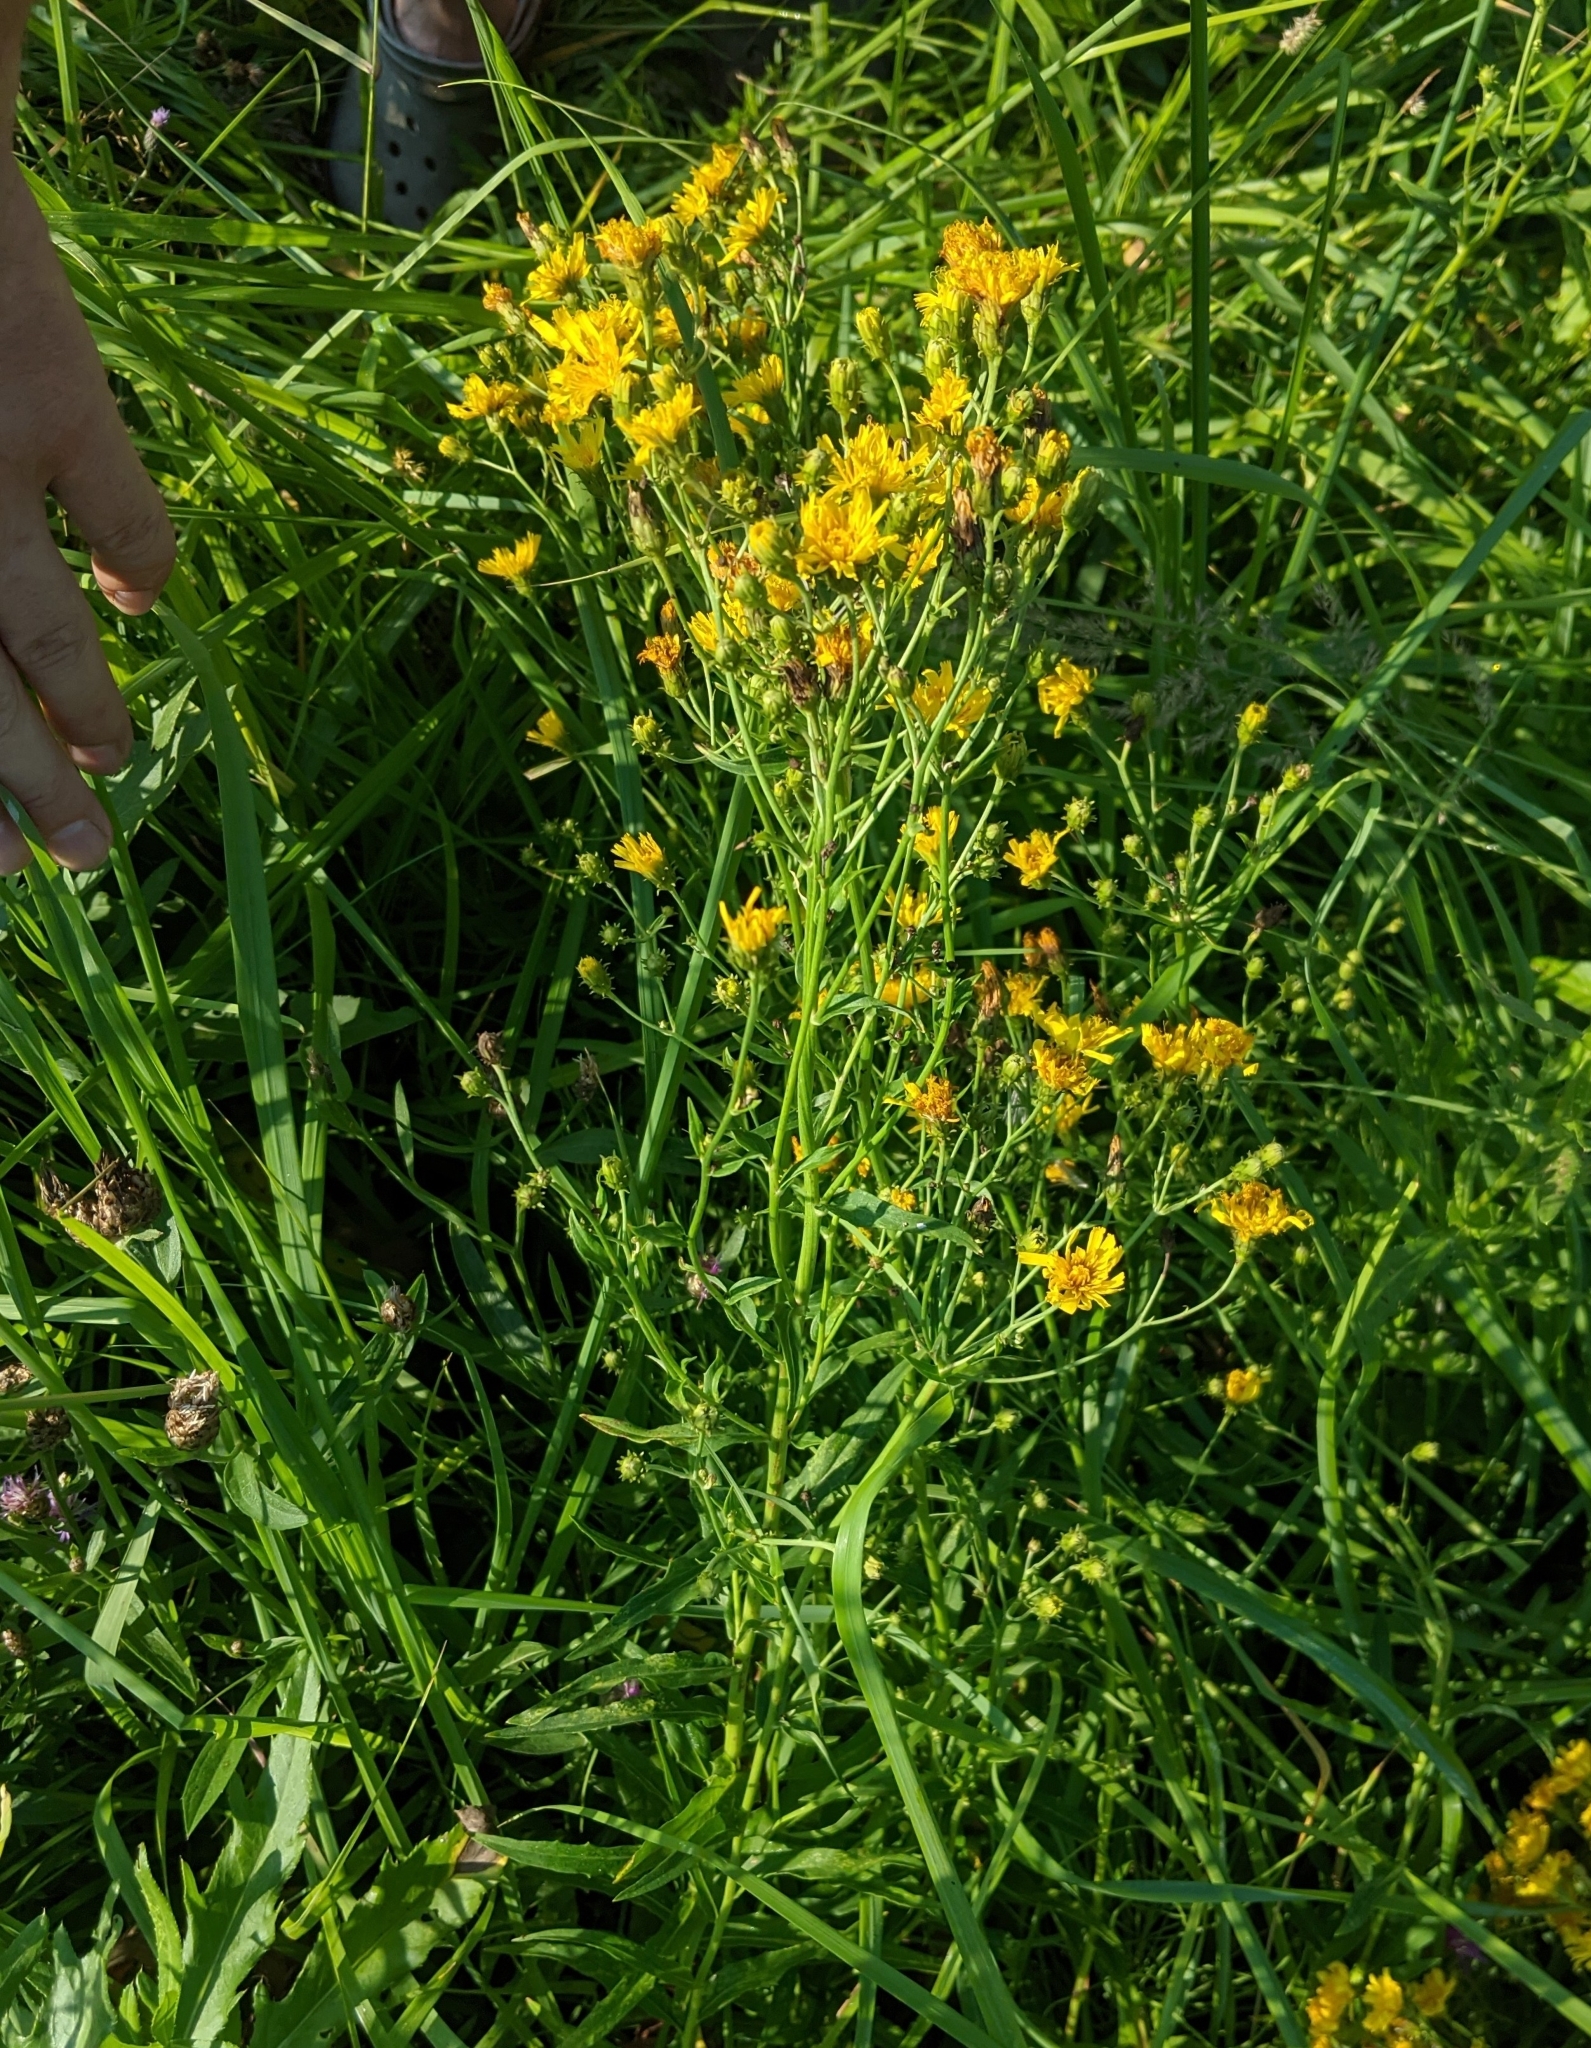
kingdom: Plantae
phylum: Tracheophyta
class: Magnoliopsida
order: Asterales
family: Asteraceae
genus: Hieracium
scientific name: Hieracium umbellatum
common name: Northern hawkweed
